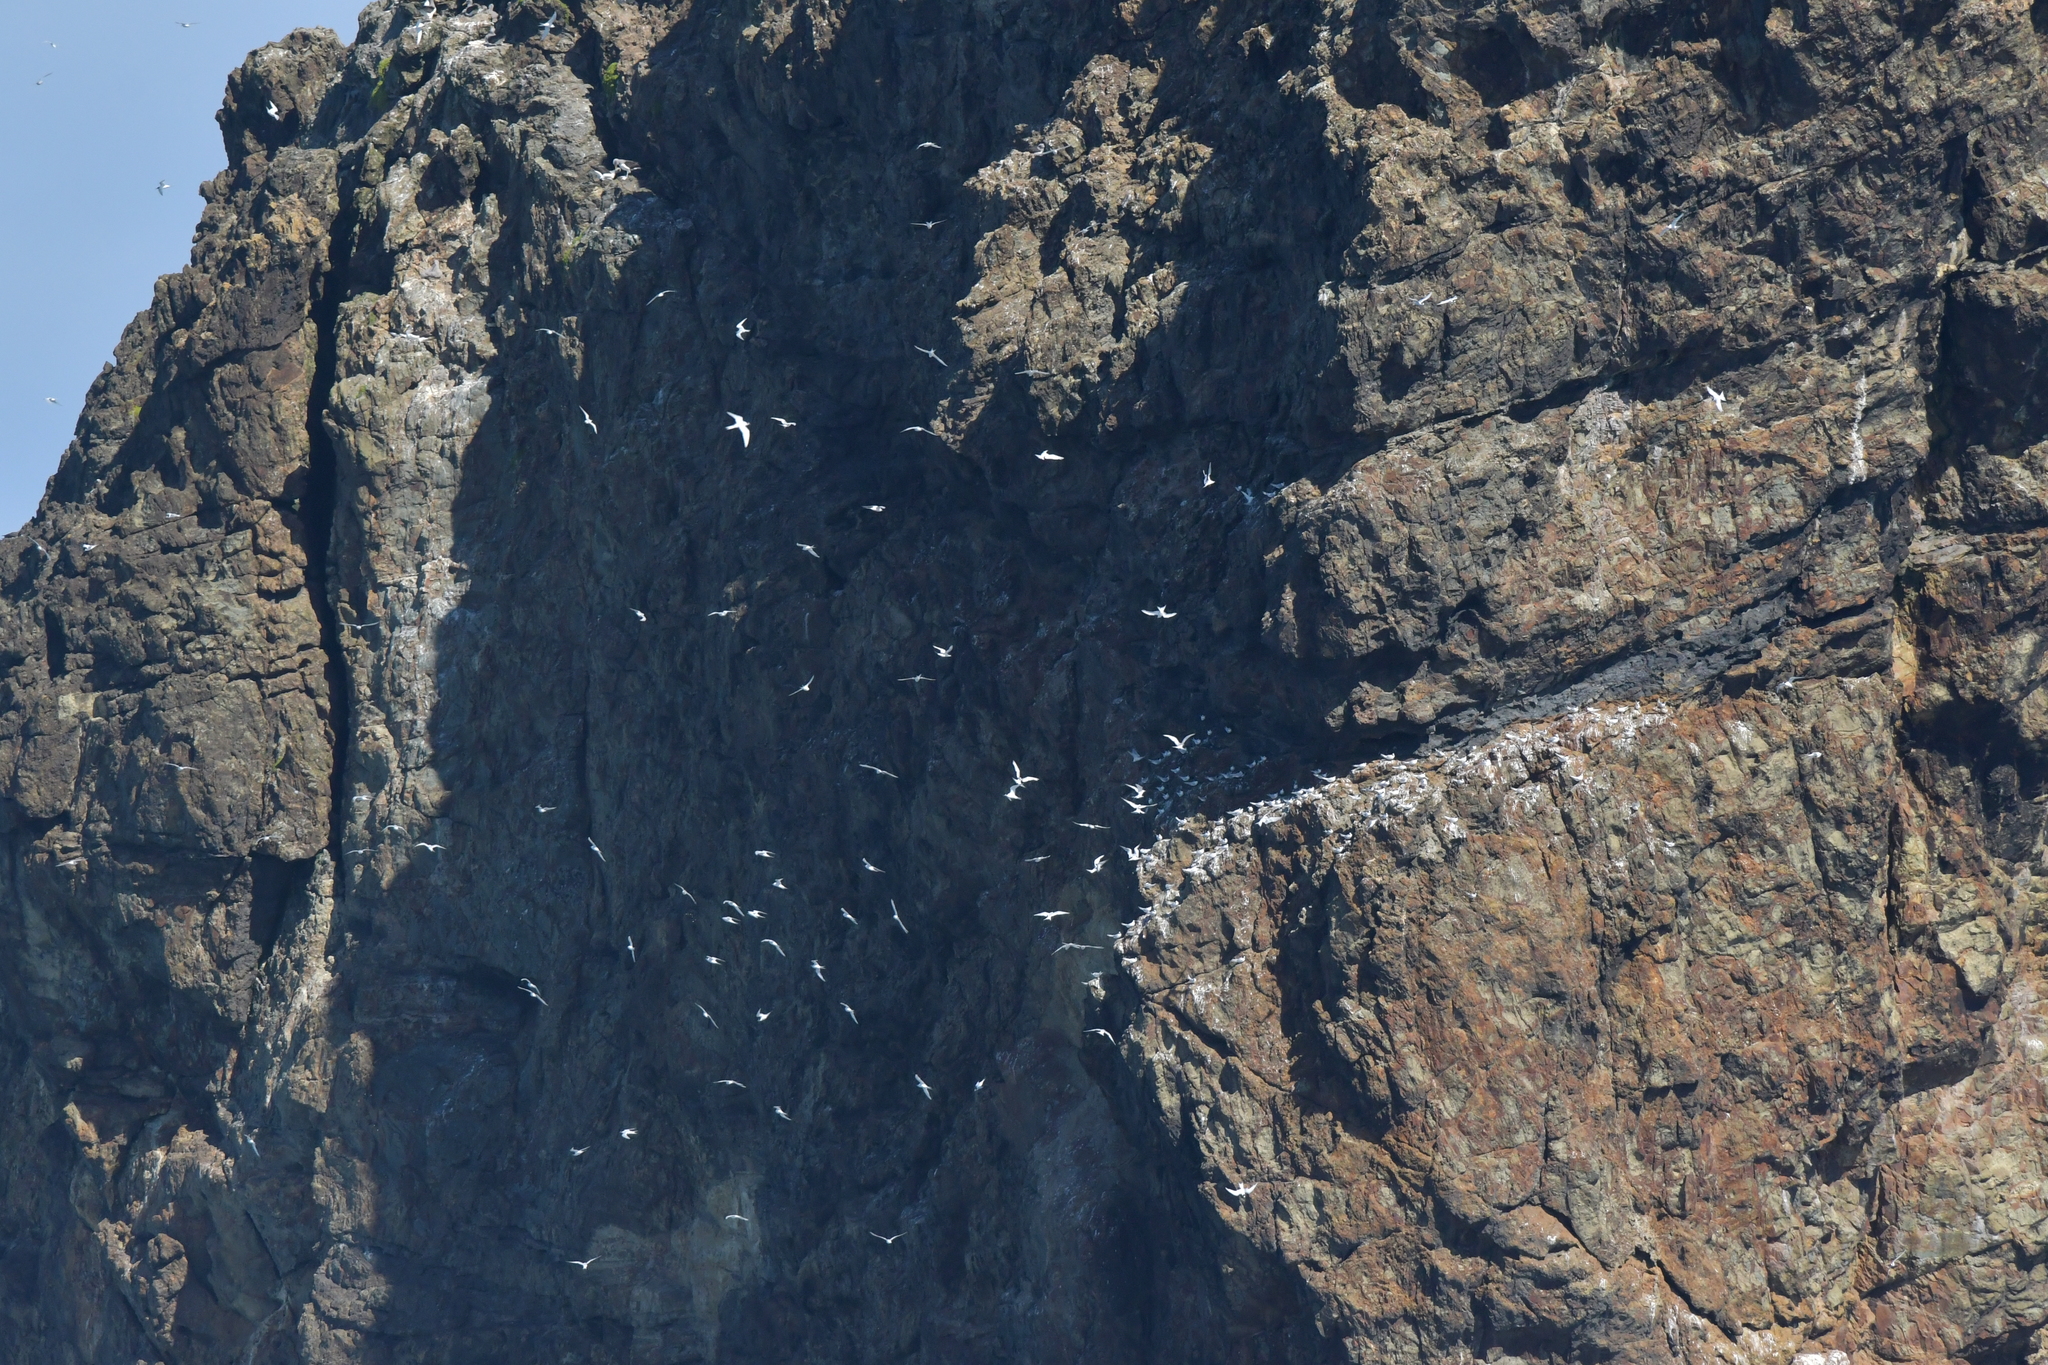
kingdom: Animalia
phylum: Chordata
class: Aves
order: Charadriiformes
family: Laridae
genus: Sterna
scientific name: Sterna striata
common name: White-fronted tern
